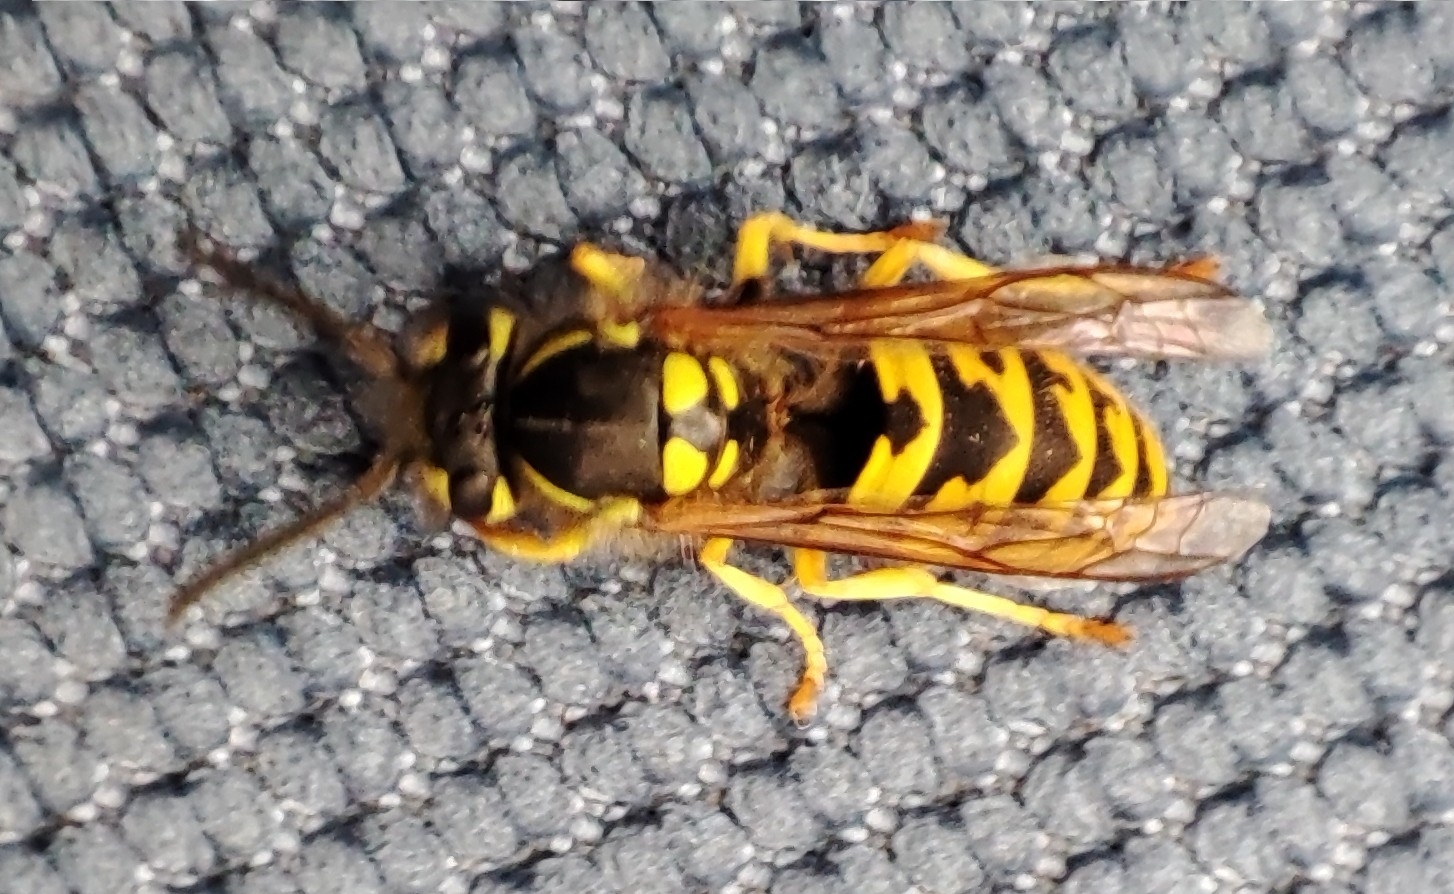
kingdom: Animalia
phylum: Arthropoda
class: Insecta
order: Hymenoptera
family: Vespidae
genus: Vespula
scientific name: Vespula germanica
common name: German wasp
